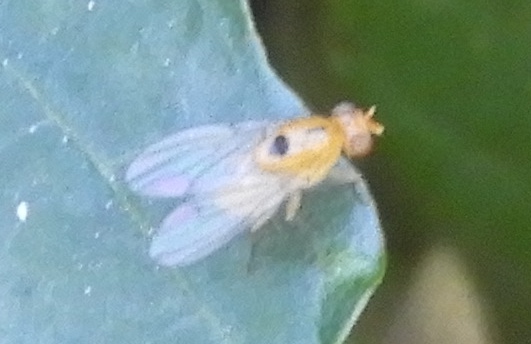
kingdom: Animalia
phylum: Arthropoda
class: Insecta
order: Diptera
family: Lauxaniidae
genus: Neogriphoneura
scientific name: Neogriphoneura timida
